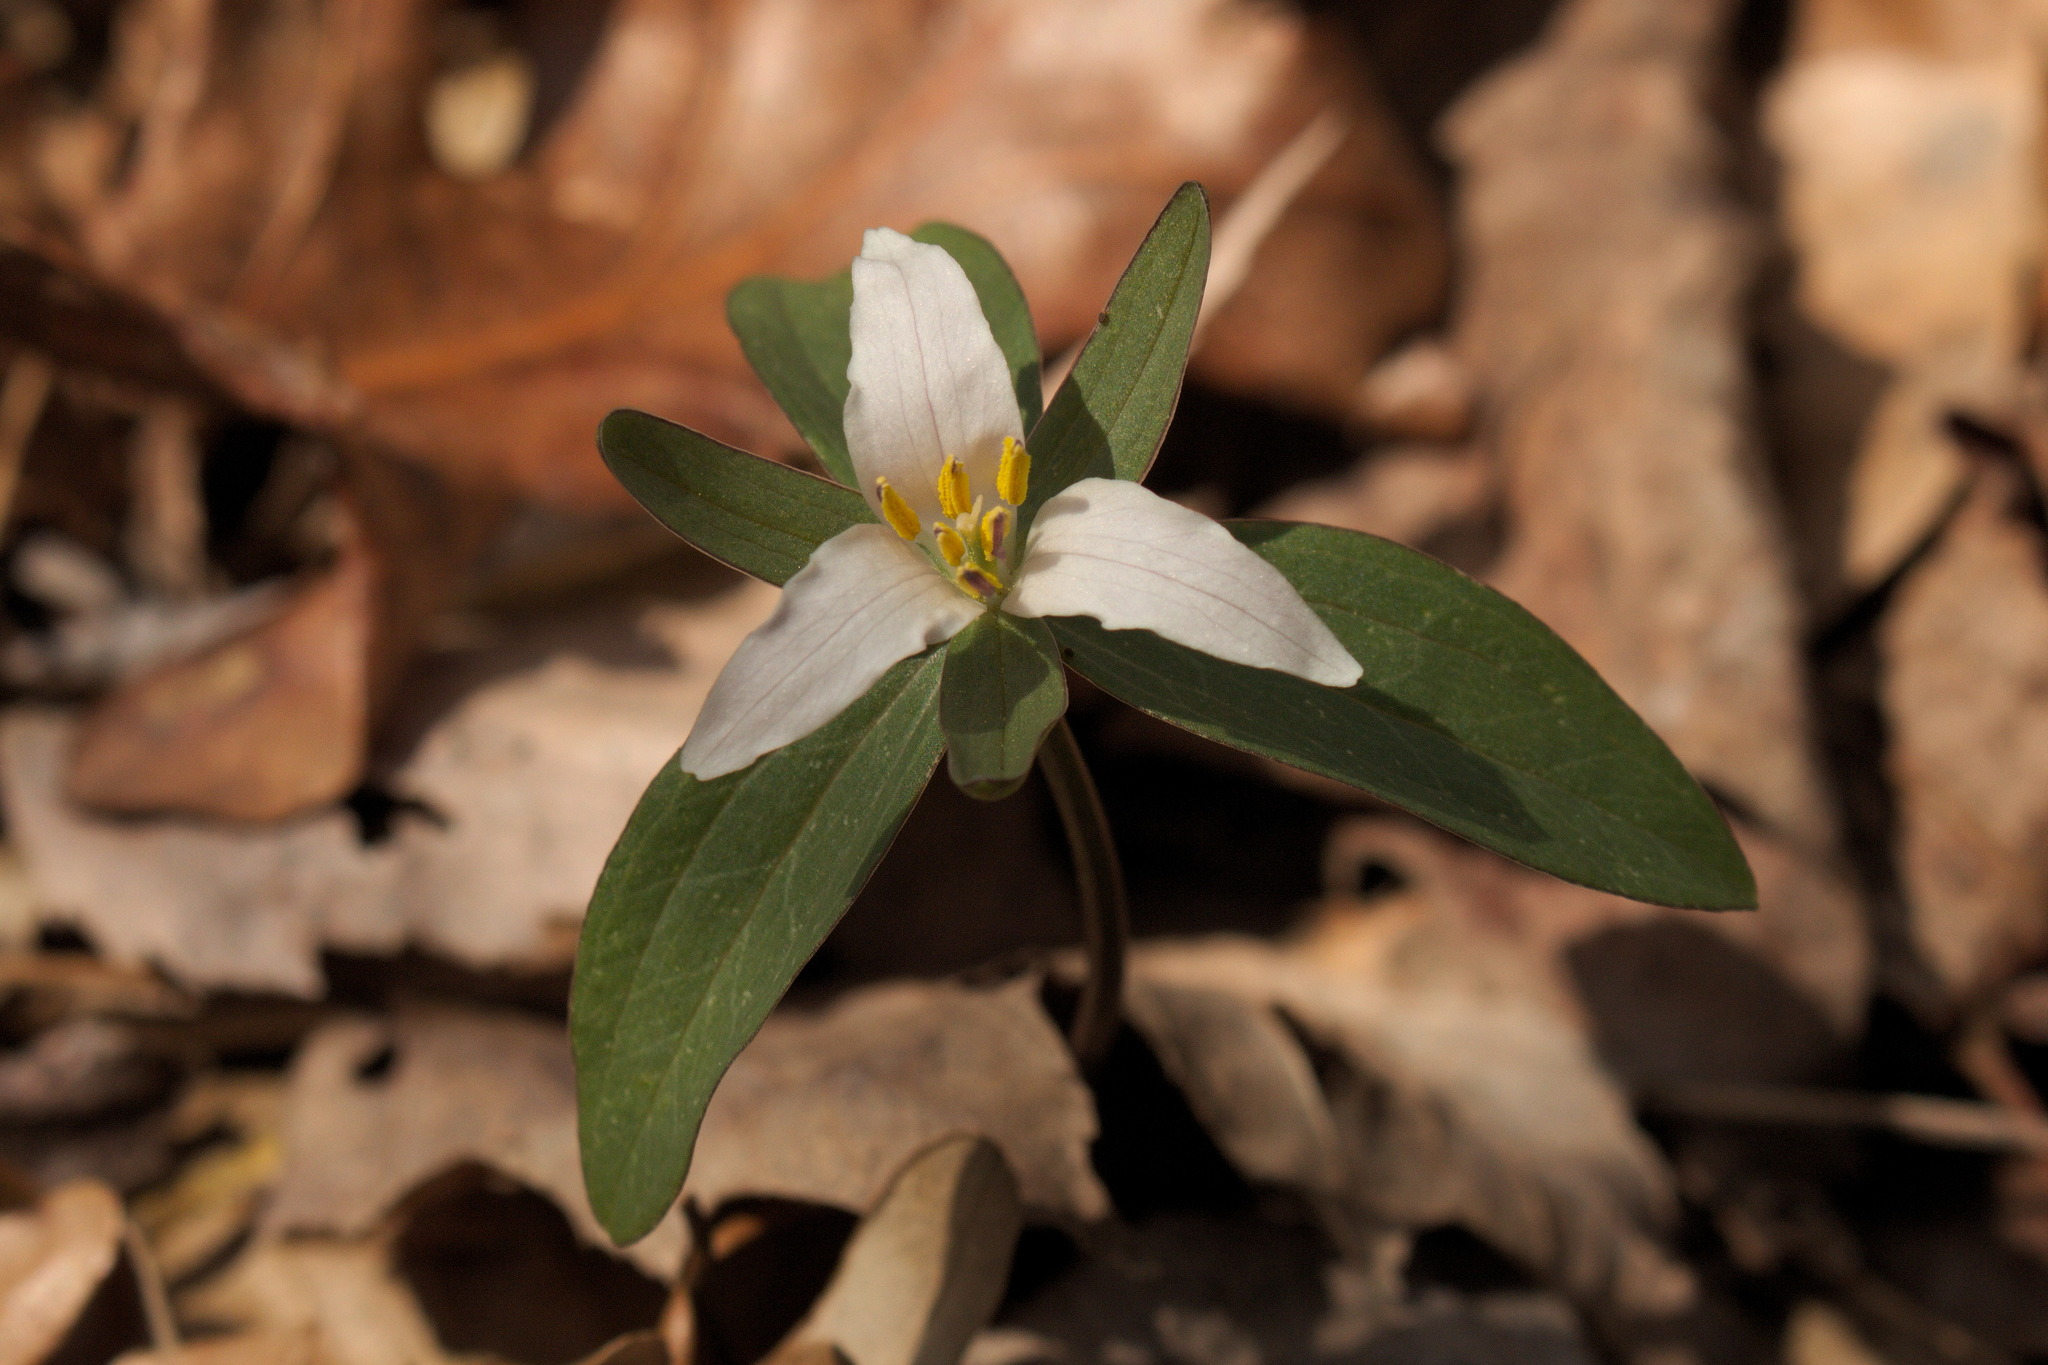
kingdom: Plantae
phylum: Tracheophyta
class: Liliopsida
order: Liliales
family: Melanthiaceae
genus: Trillium
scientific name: Trillium pusillum
